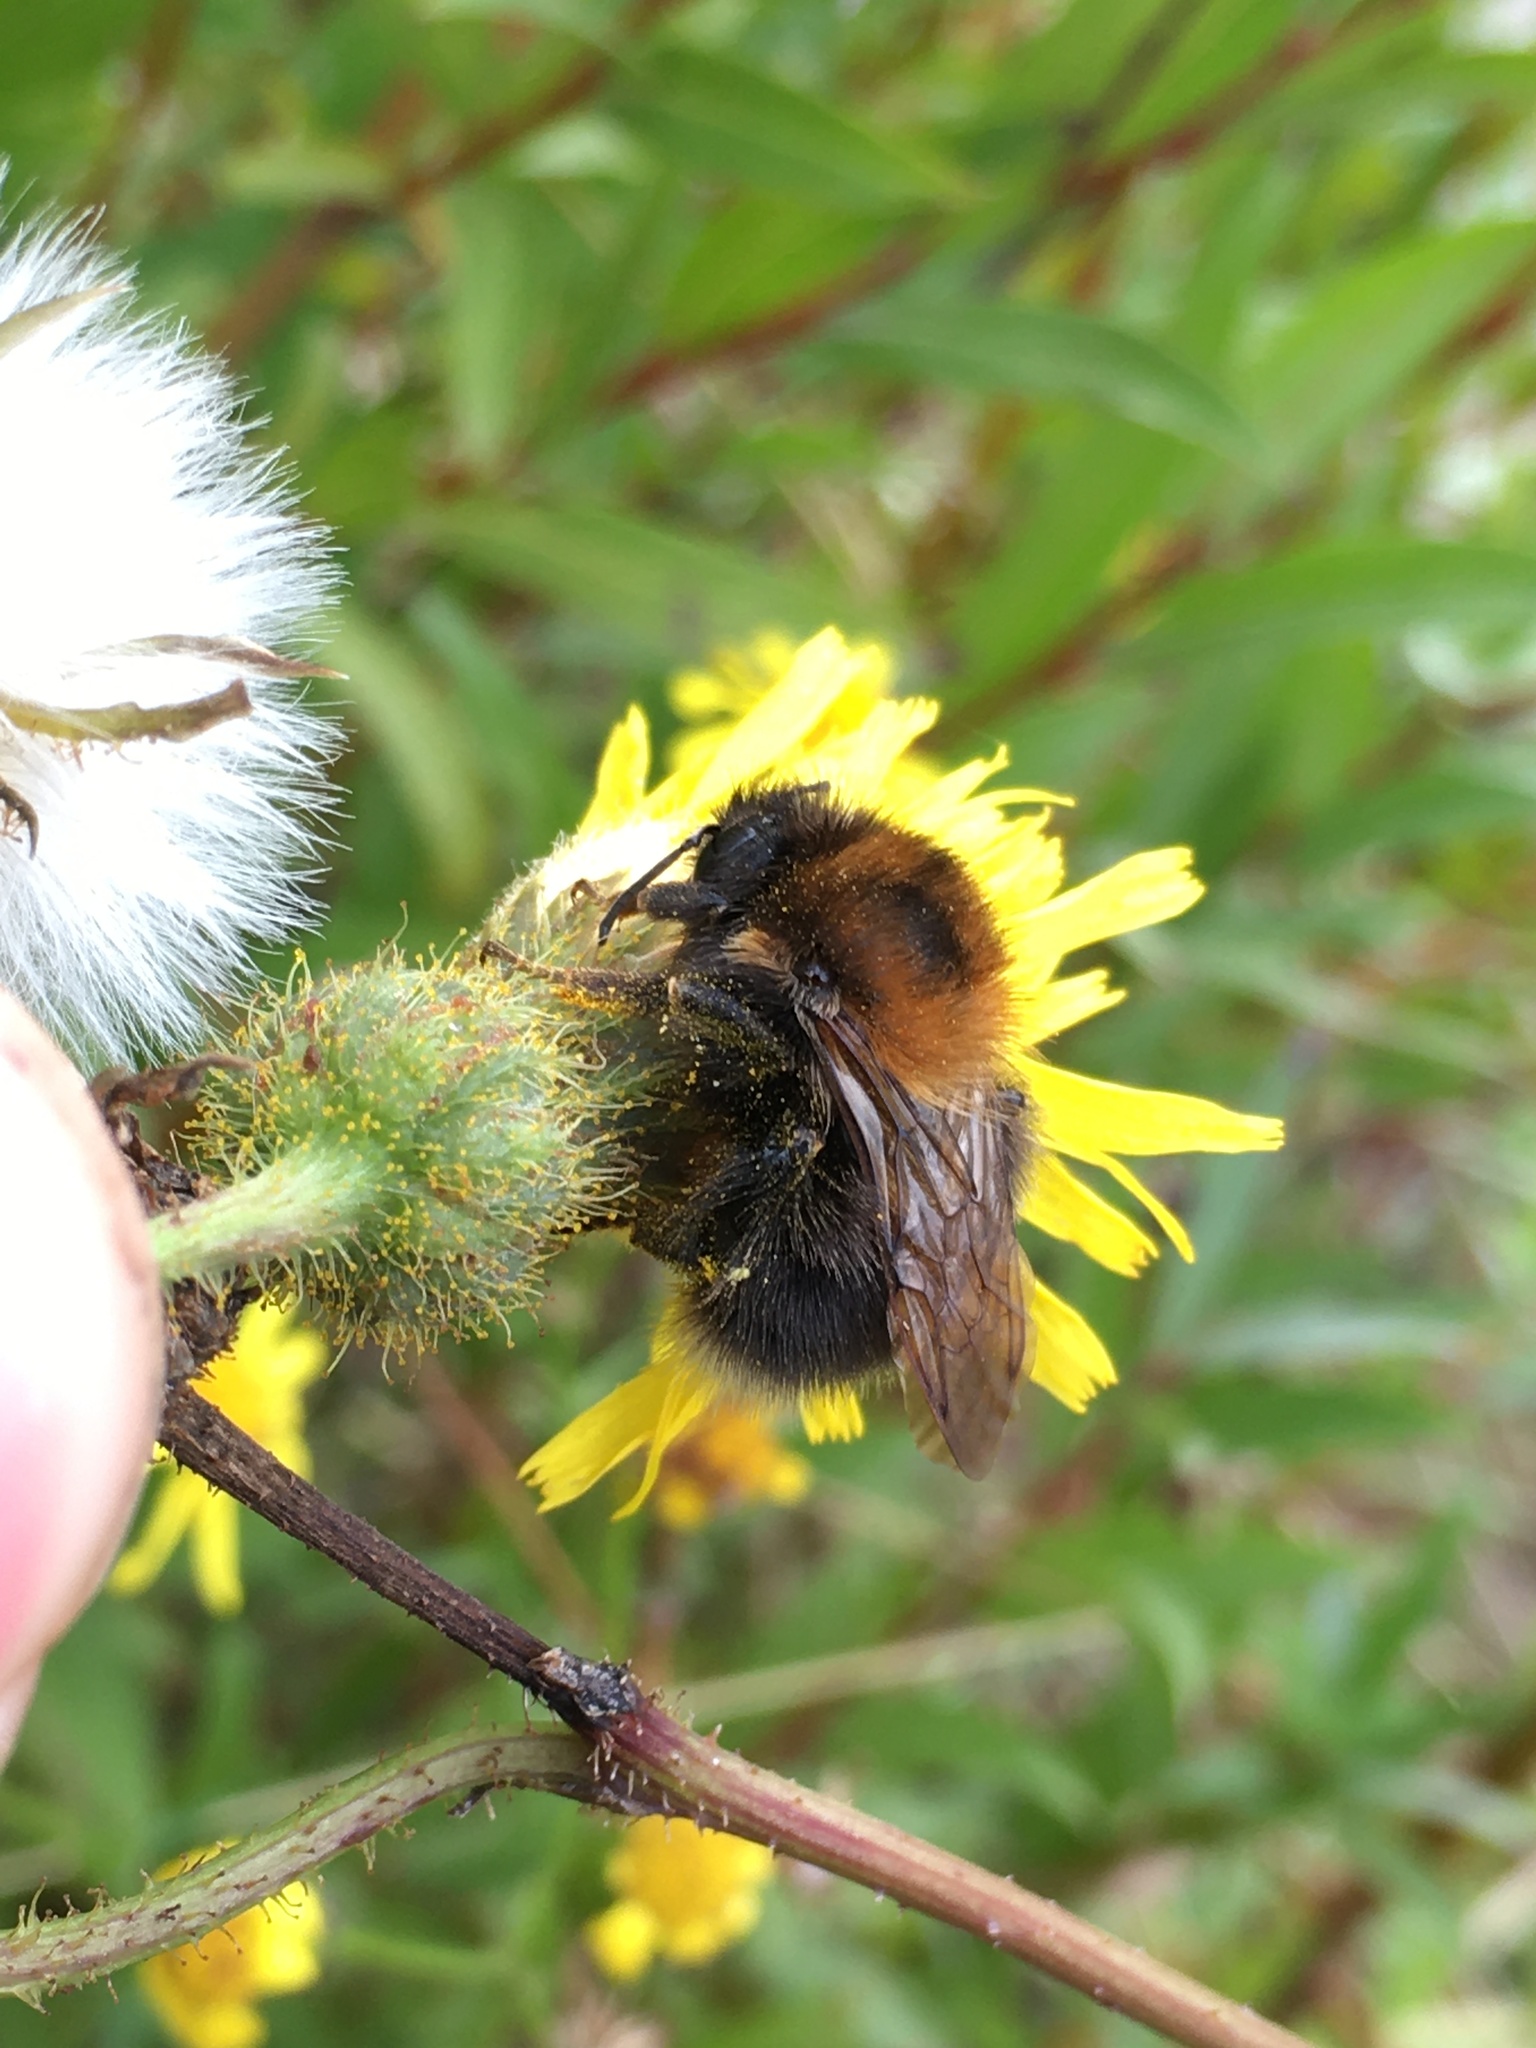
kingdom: Animalia
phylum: Arthropoda
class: Insecta
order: Hymenoptera
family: Apidae
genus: Bombus
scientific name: Bombus hypnorum
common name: New garden bumblebee
